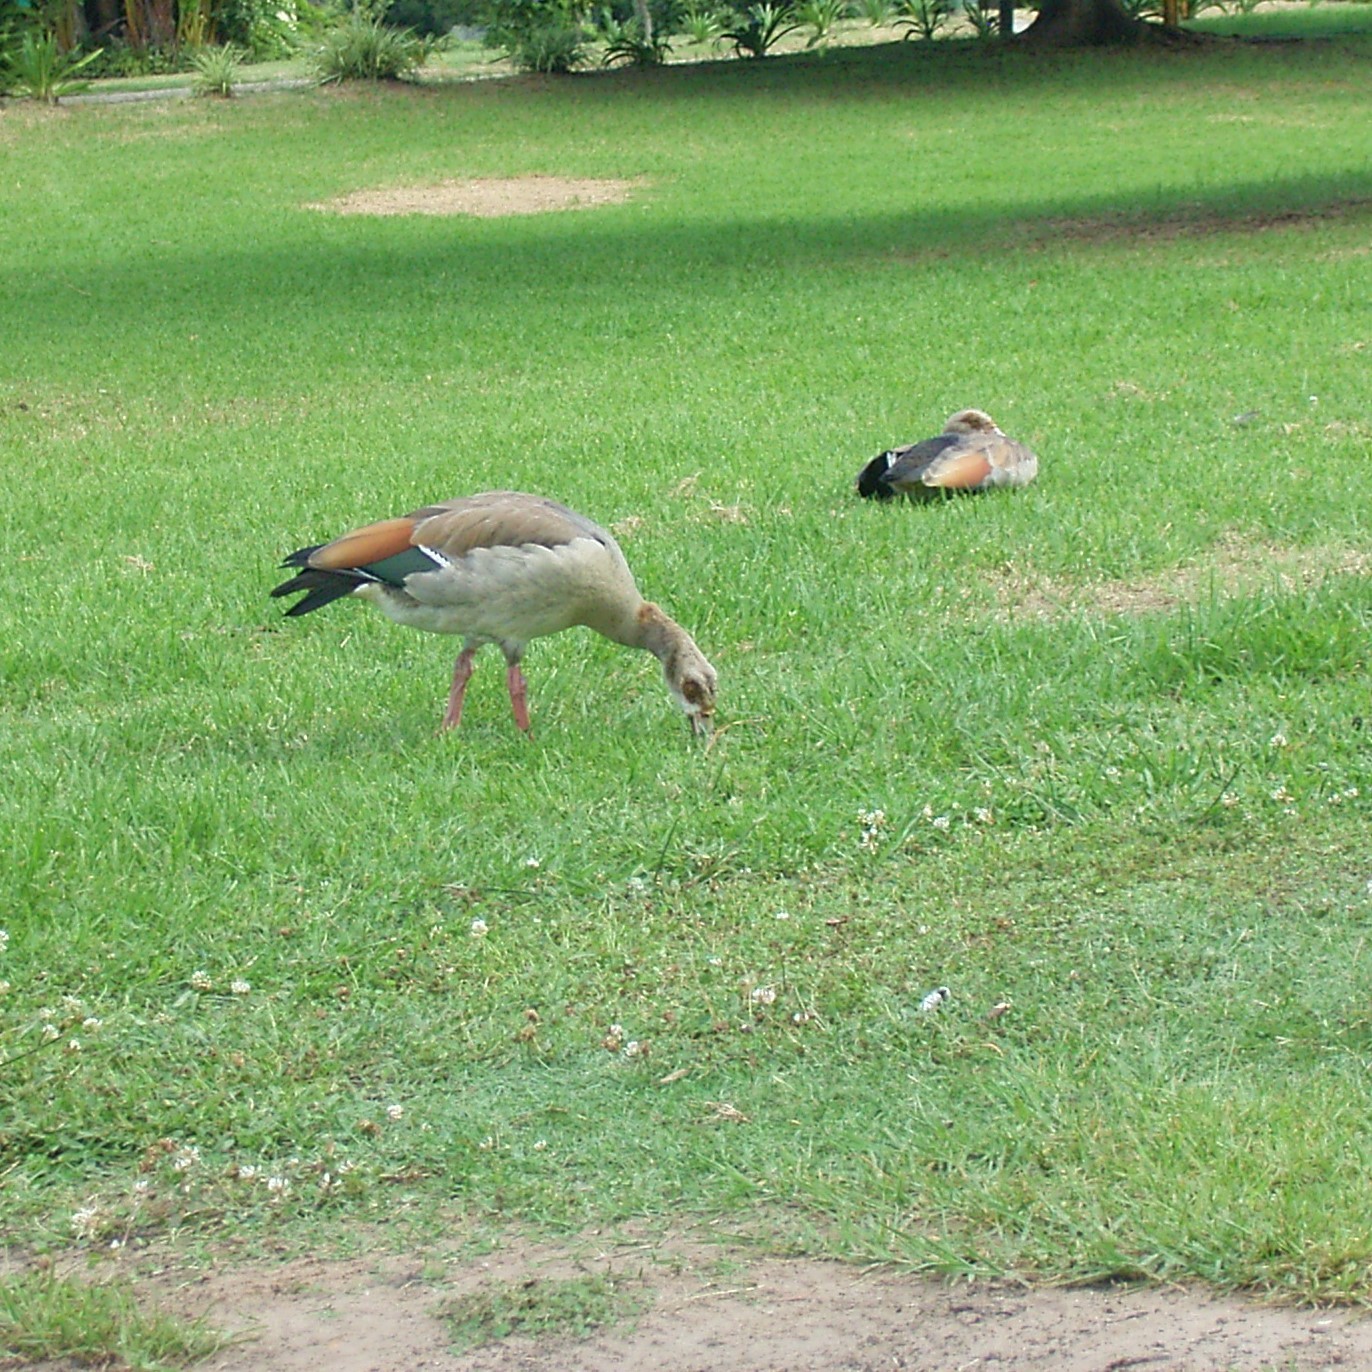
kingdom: Animalia
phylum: Chordata
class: Aves
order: Anseriformes
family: Anatidae
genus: Alopochen
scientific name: Alopochen aegyptiaca
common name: Egyptian goose
